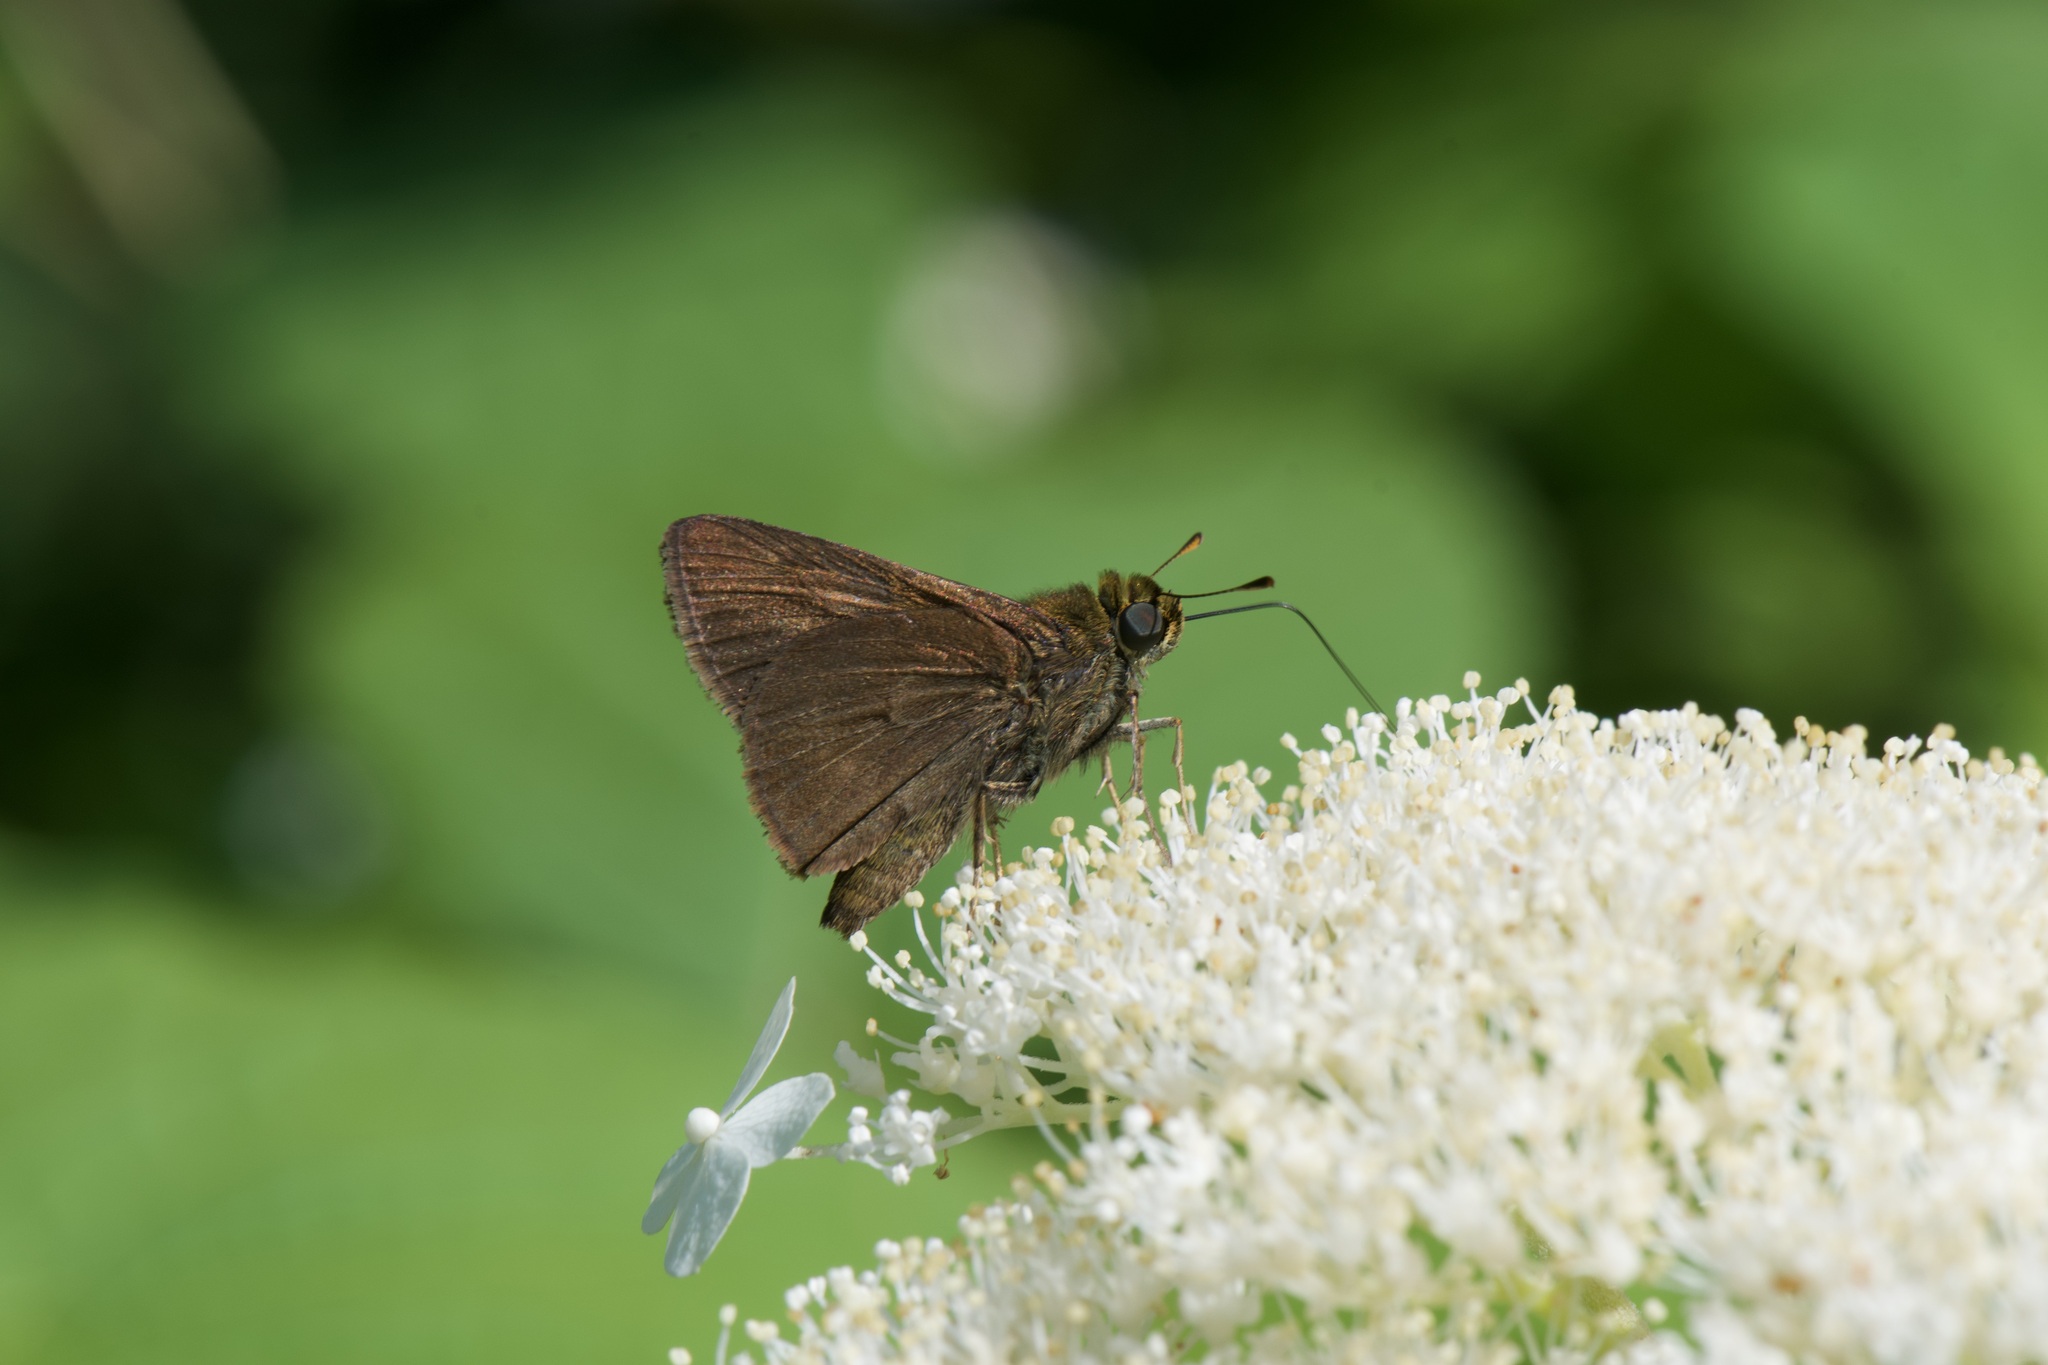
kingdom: Animalia
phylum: Arthropoda
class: Insecta
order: Lepidoptera
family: Hesperiidae
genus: Euphyes
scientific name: Euphyes vestris
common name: Dun skipper
